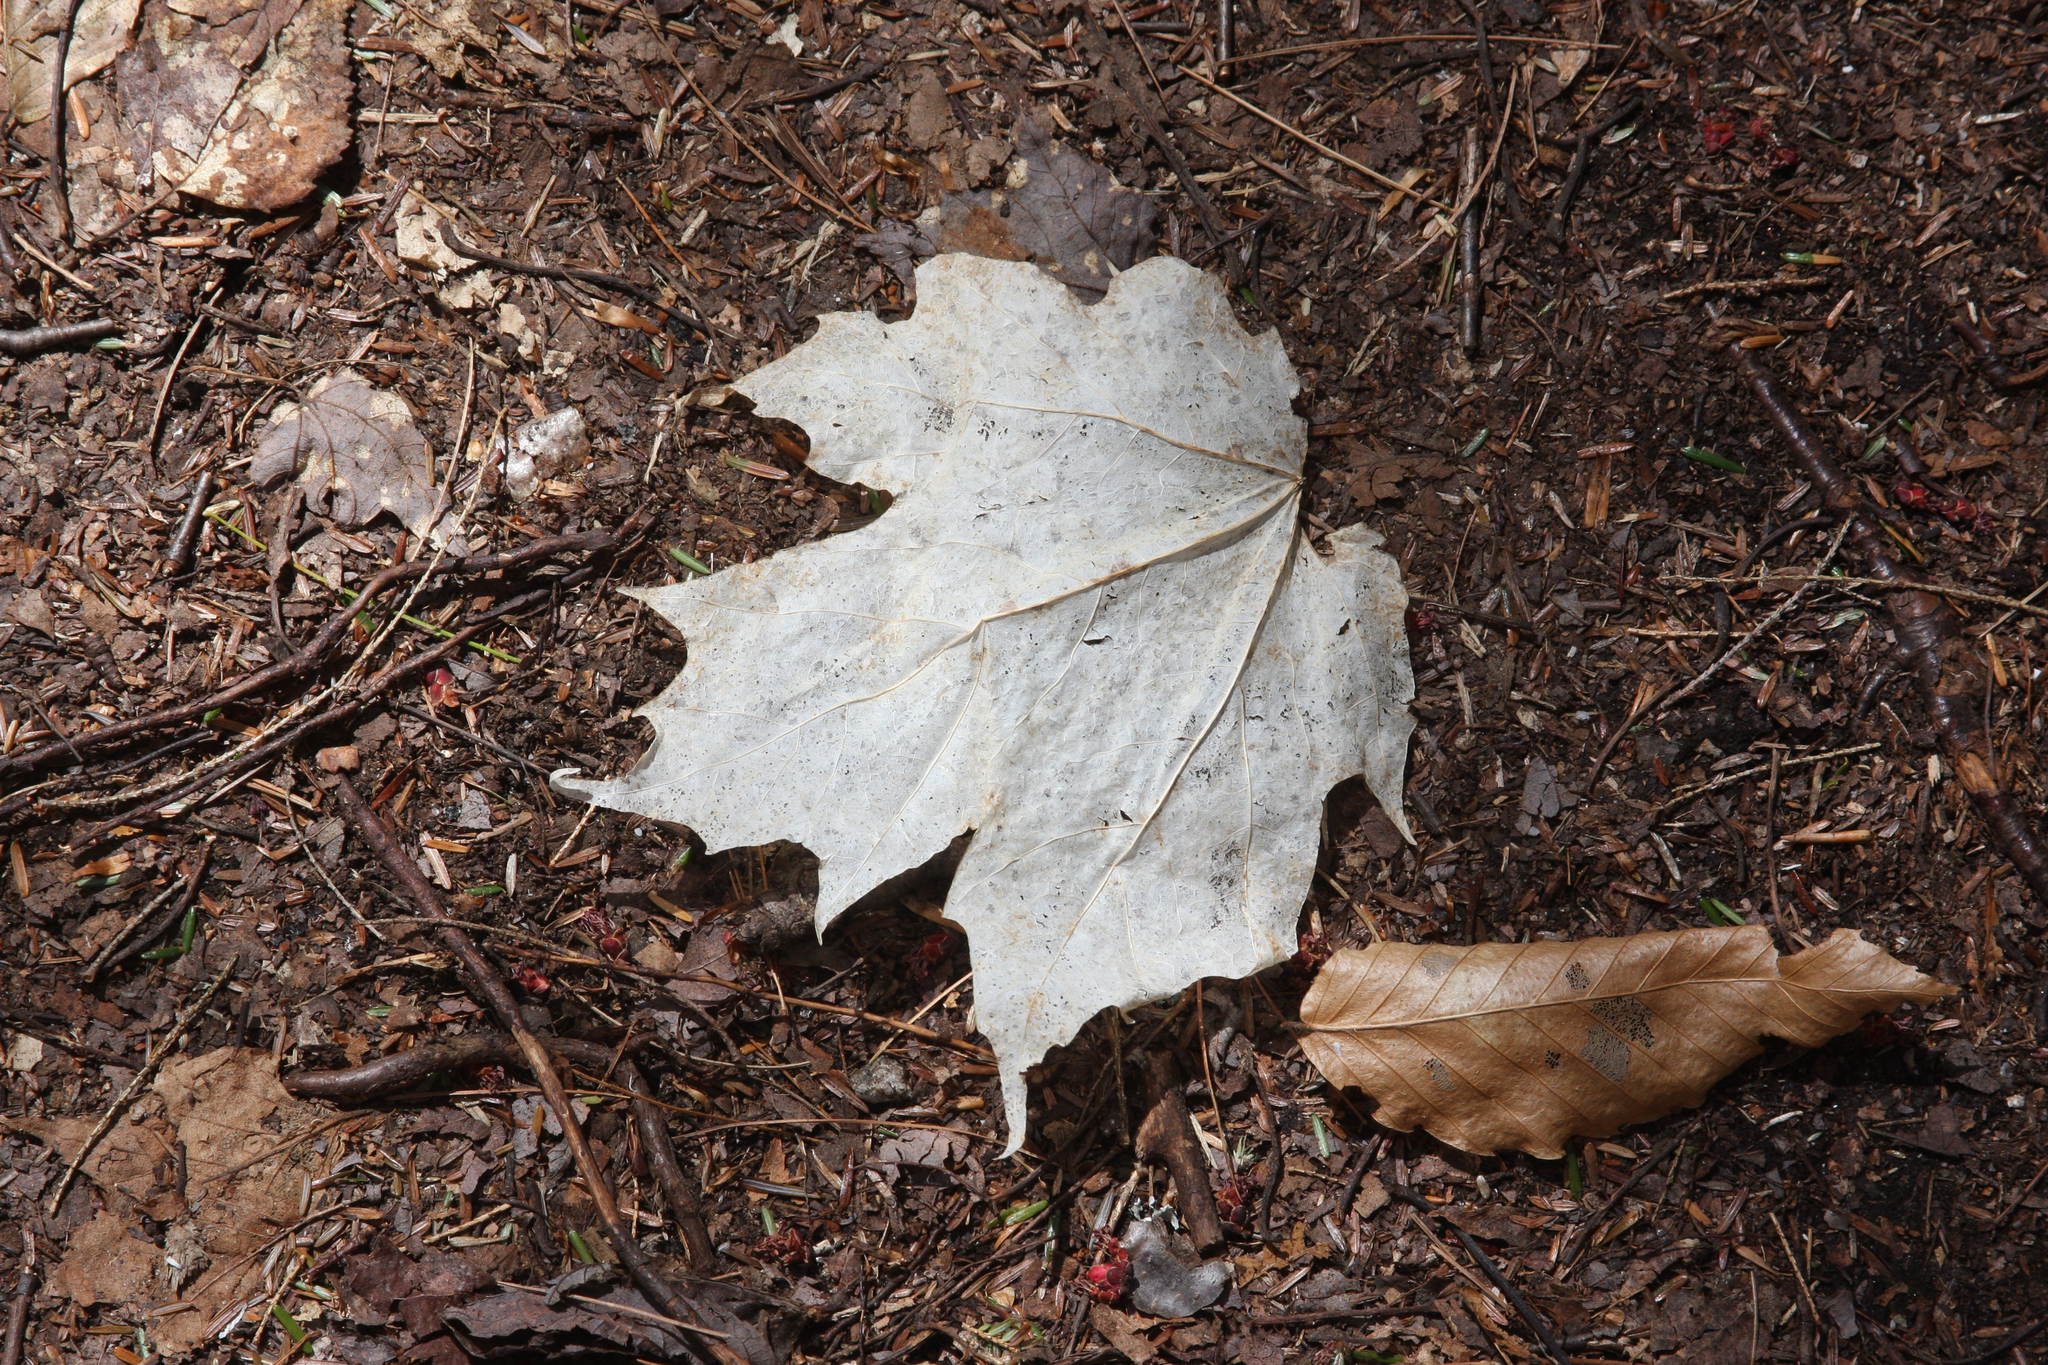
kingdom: Plantae
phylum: Tracheophyta
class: Magnoliopsida
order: Sapindales
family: Sapindaceae
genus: Acer
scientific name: Acer saccharum
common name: Sugar maple
